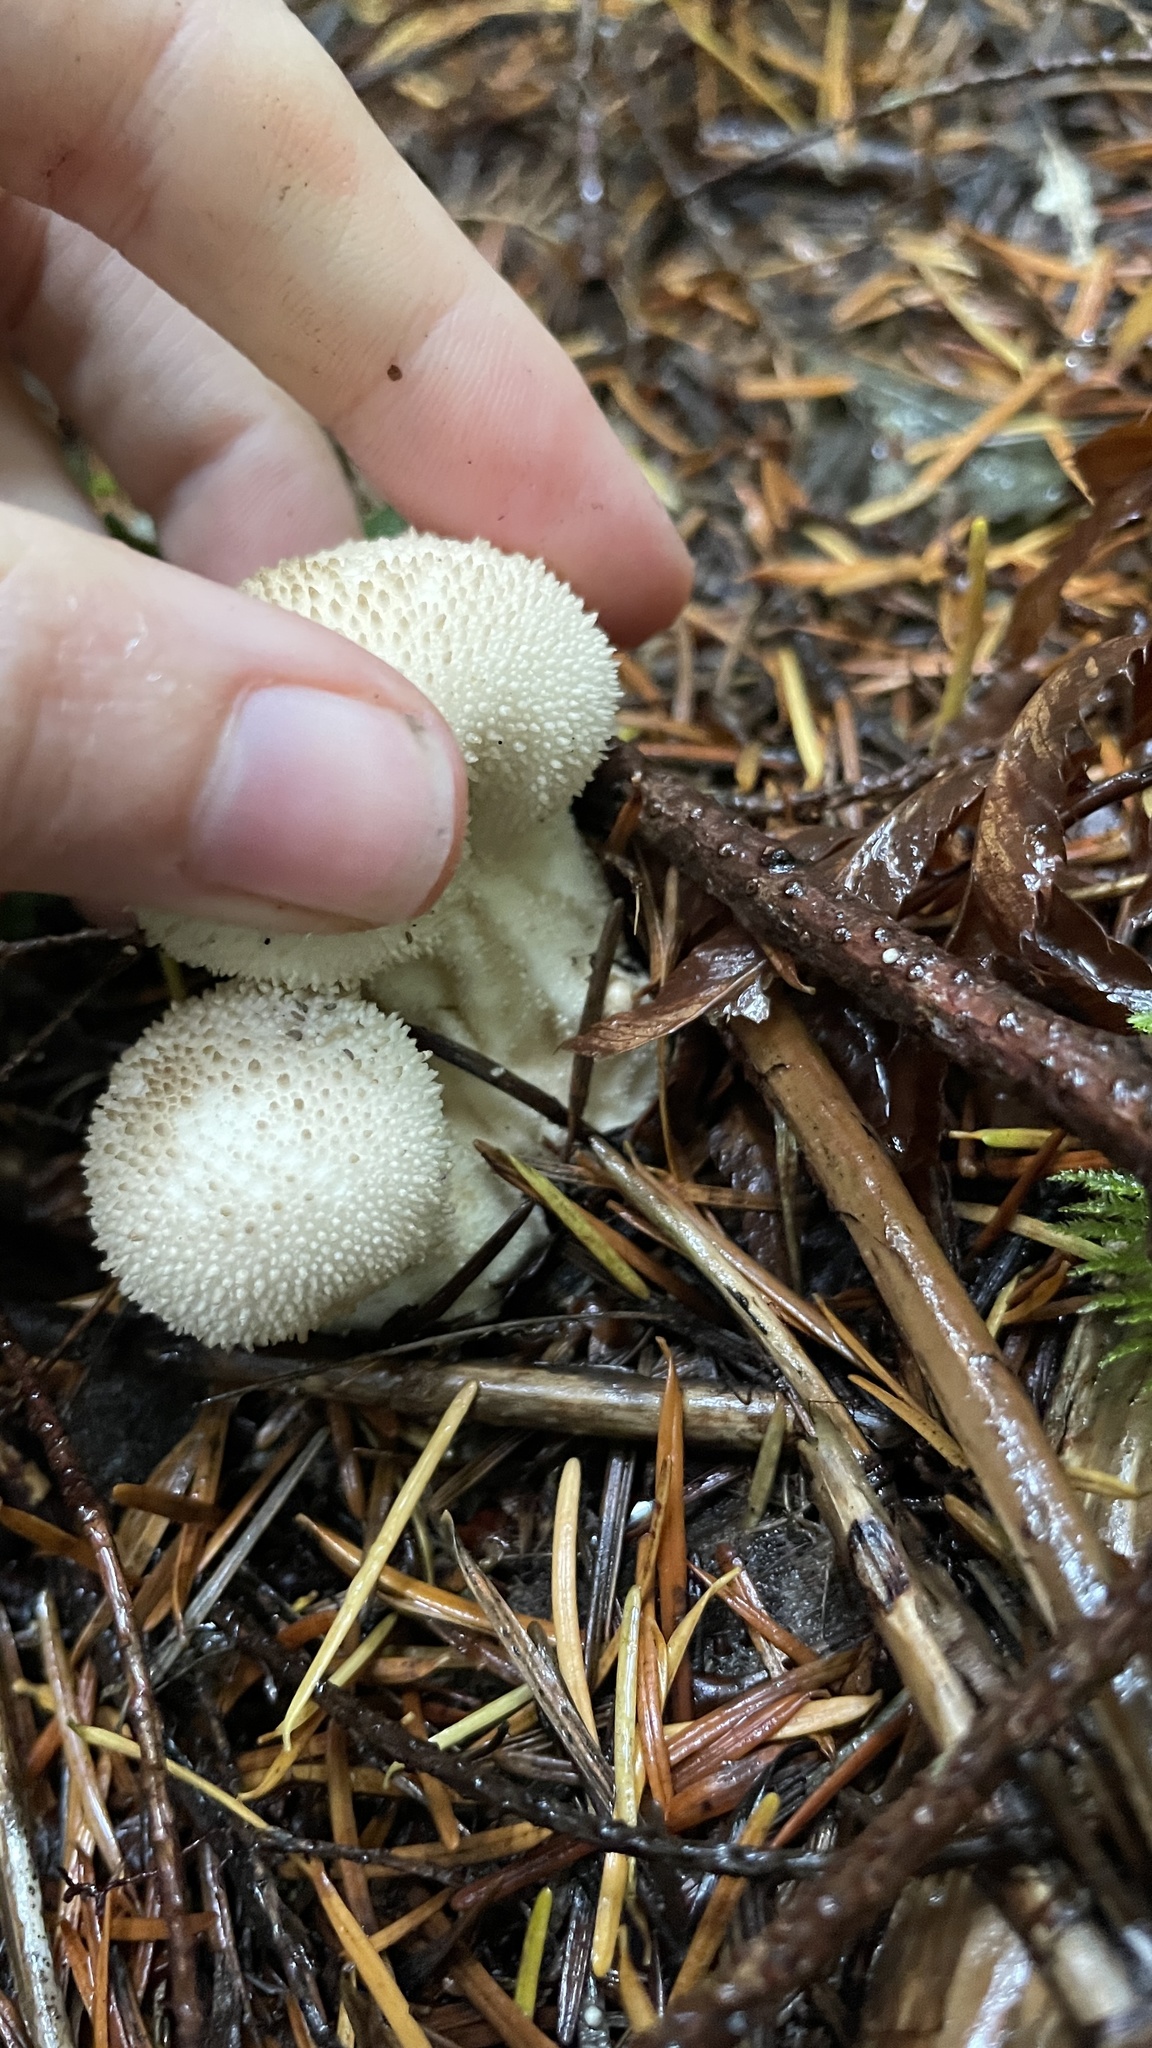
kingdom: Fungi
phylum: Basidiomycota
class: Agaricomycetes
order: Agaricales
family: Lycoperdaceae
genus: Lycoperdon
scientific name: Lycoperdon perlatum
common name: Common puffball
